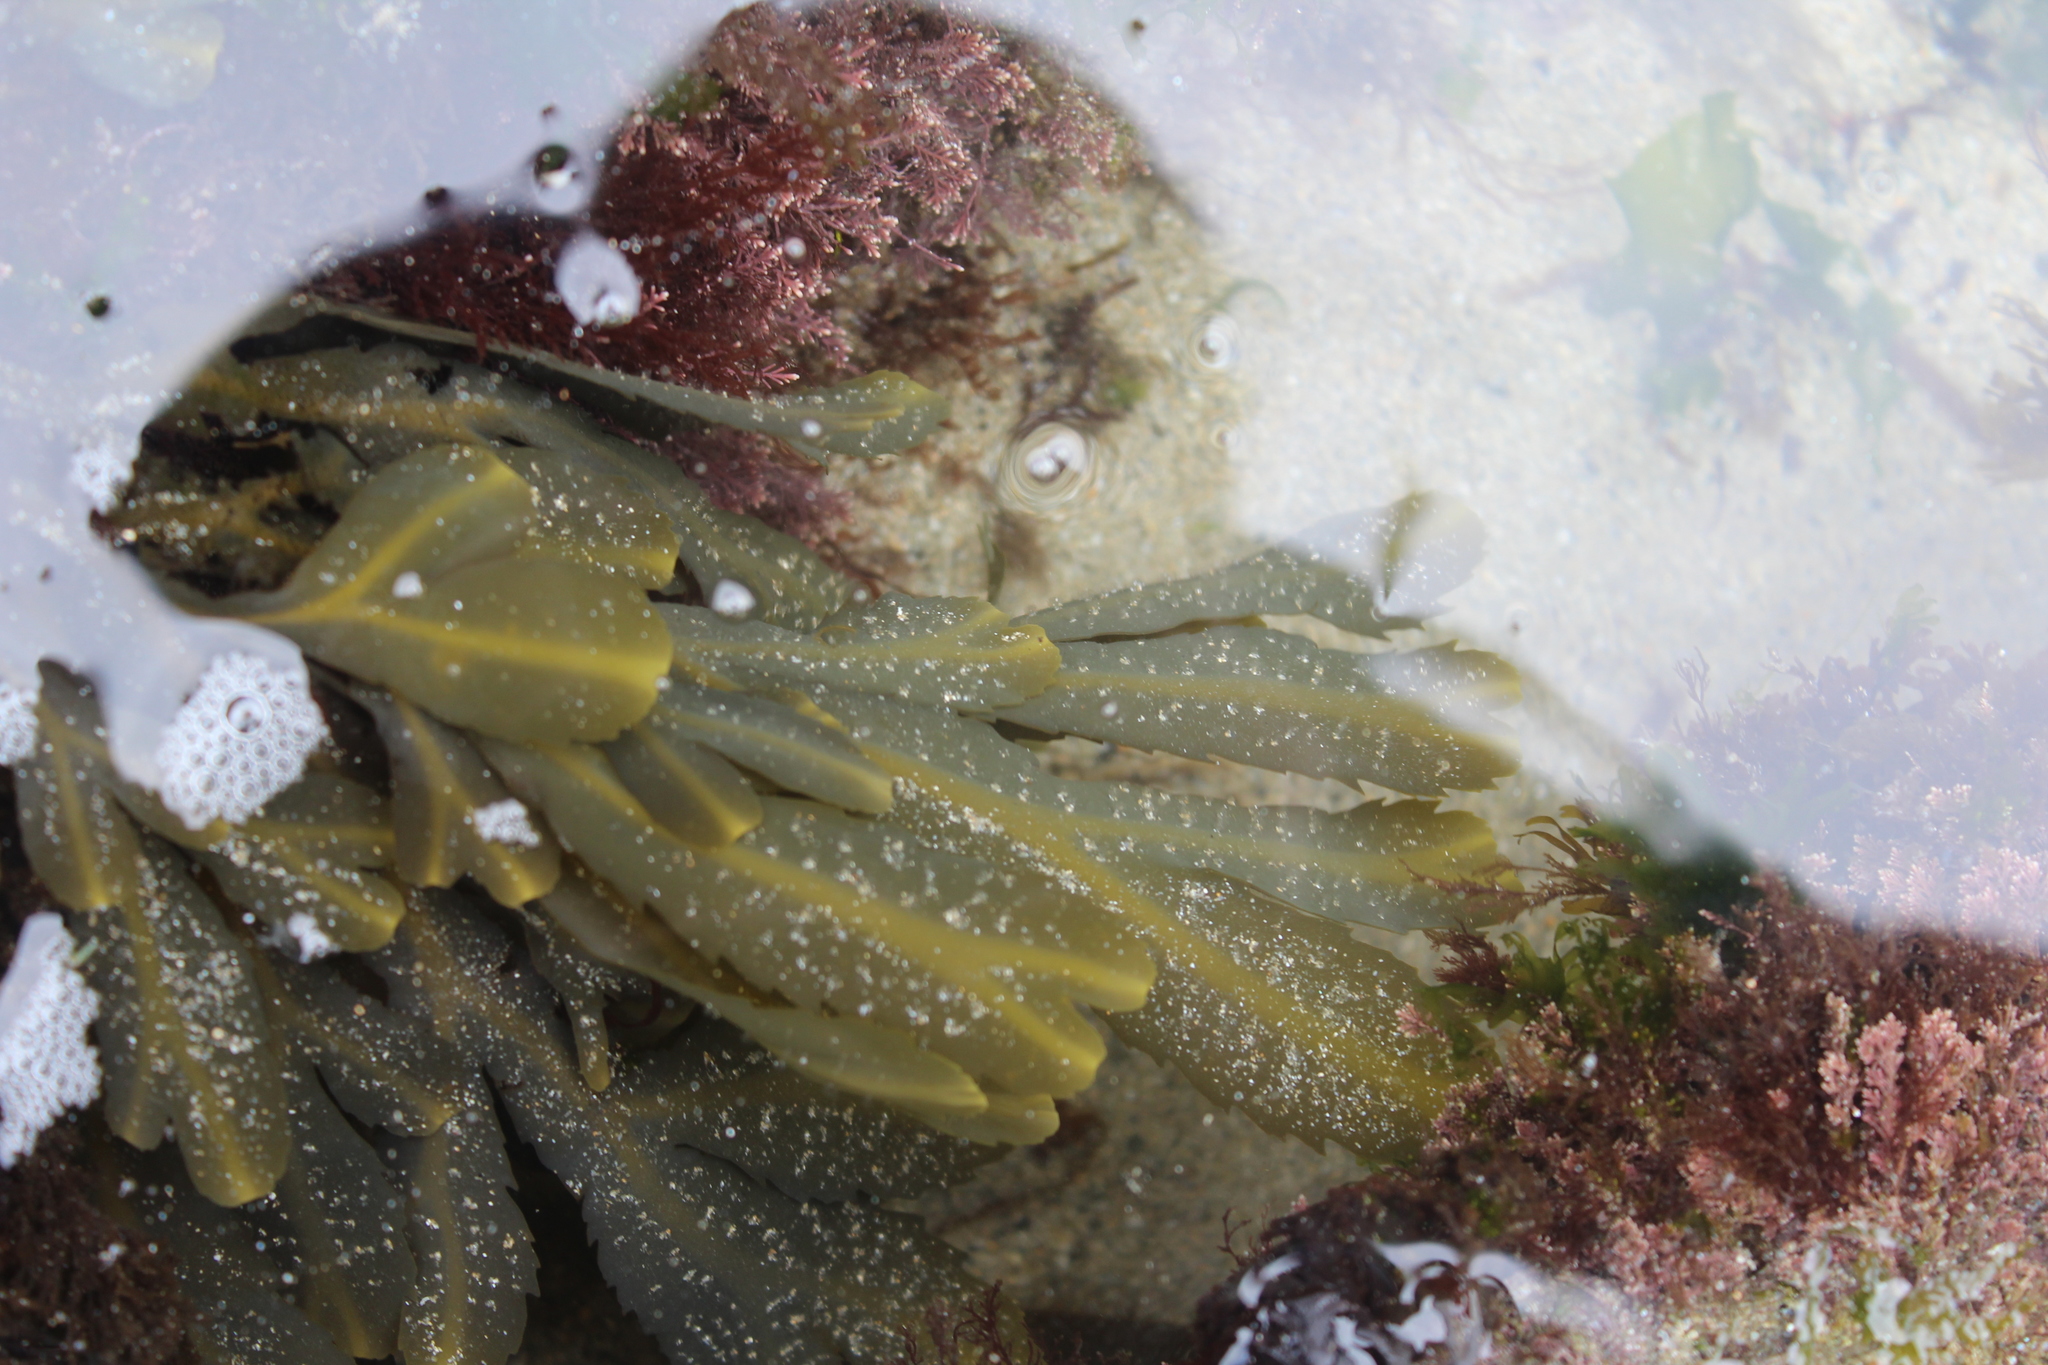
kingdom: Chromista
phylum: Ochrophyta
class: Phaeophyceae
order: Fucales
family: Fucaceae
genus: Fucus
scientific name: Fucus serratus
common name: Toothed wrack
